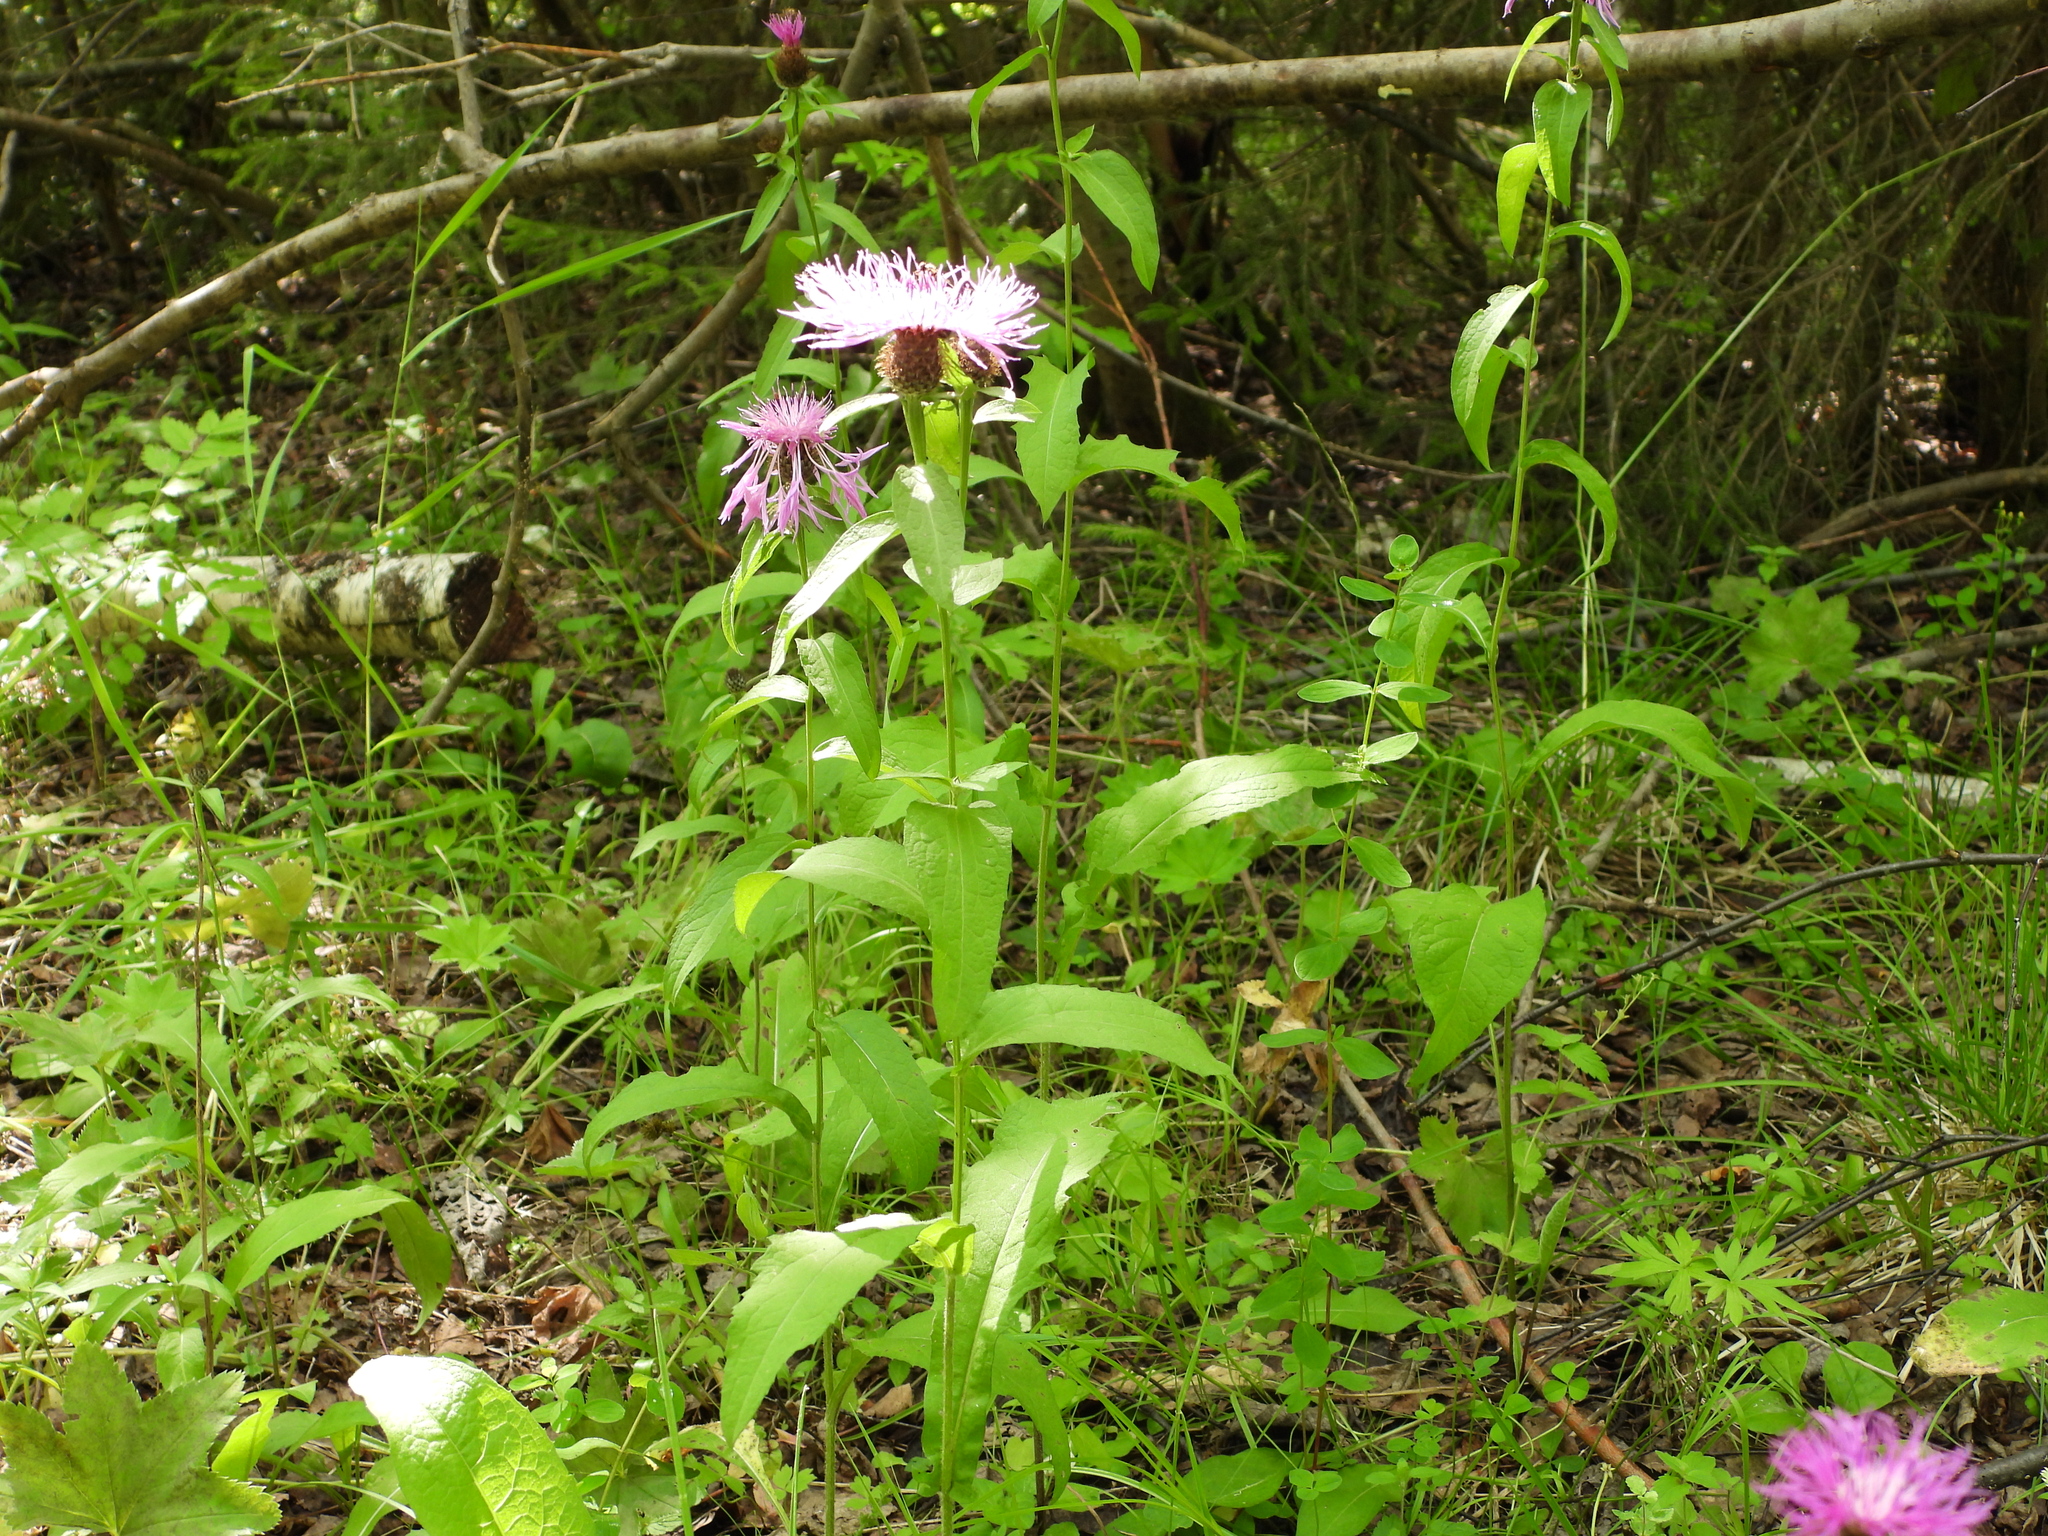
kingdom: Plantae
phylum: Tracheophyta
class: Magnoliopsida
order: Asterales
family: Asteraceae
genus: Centaurea
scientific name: Centaurea phrygia
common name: Wig knapweed
